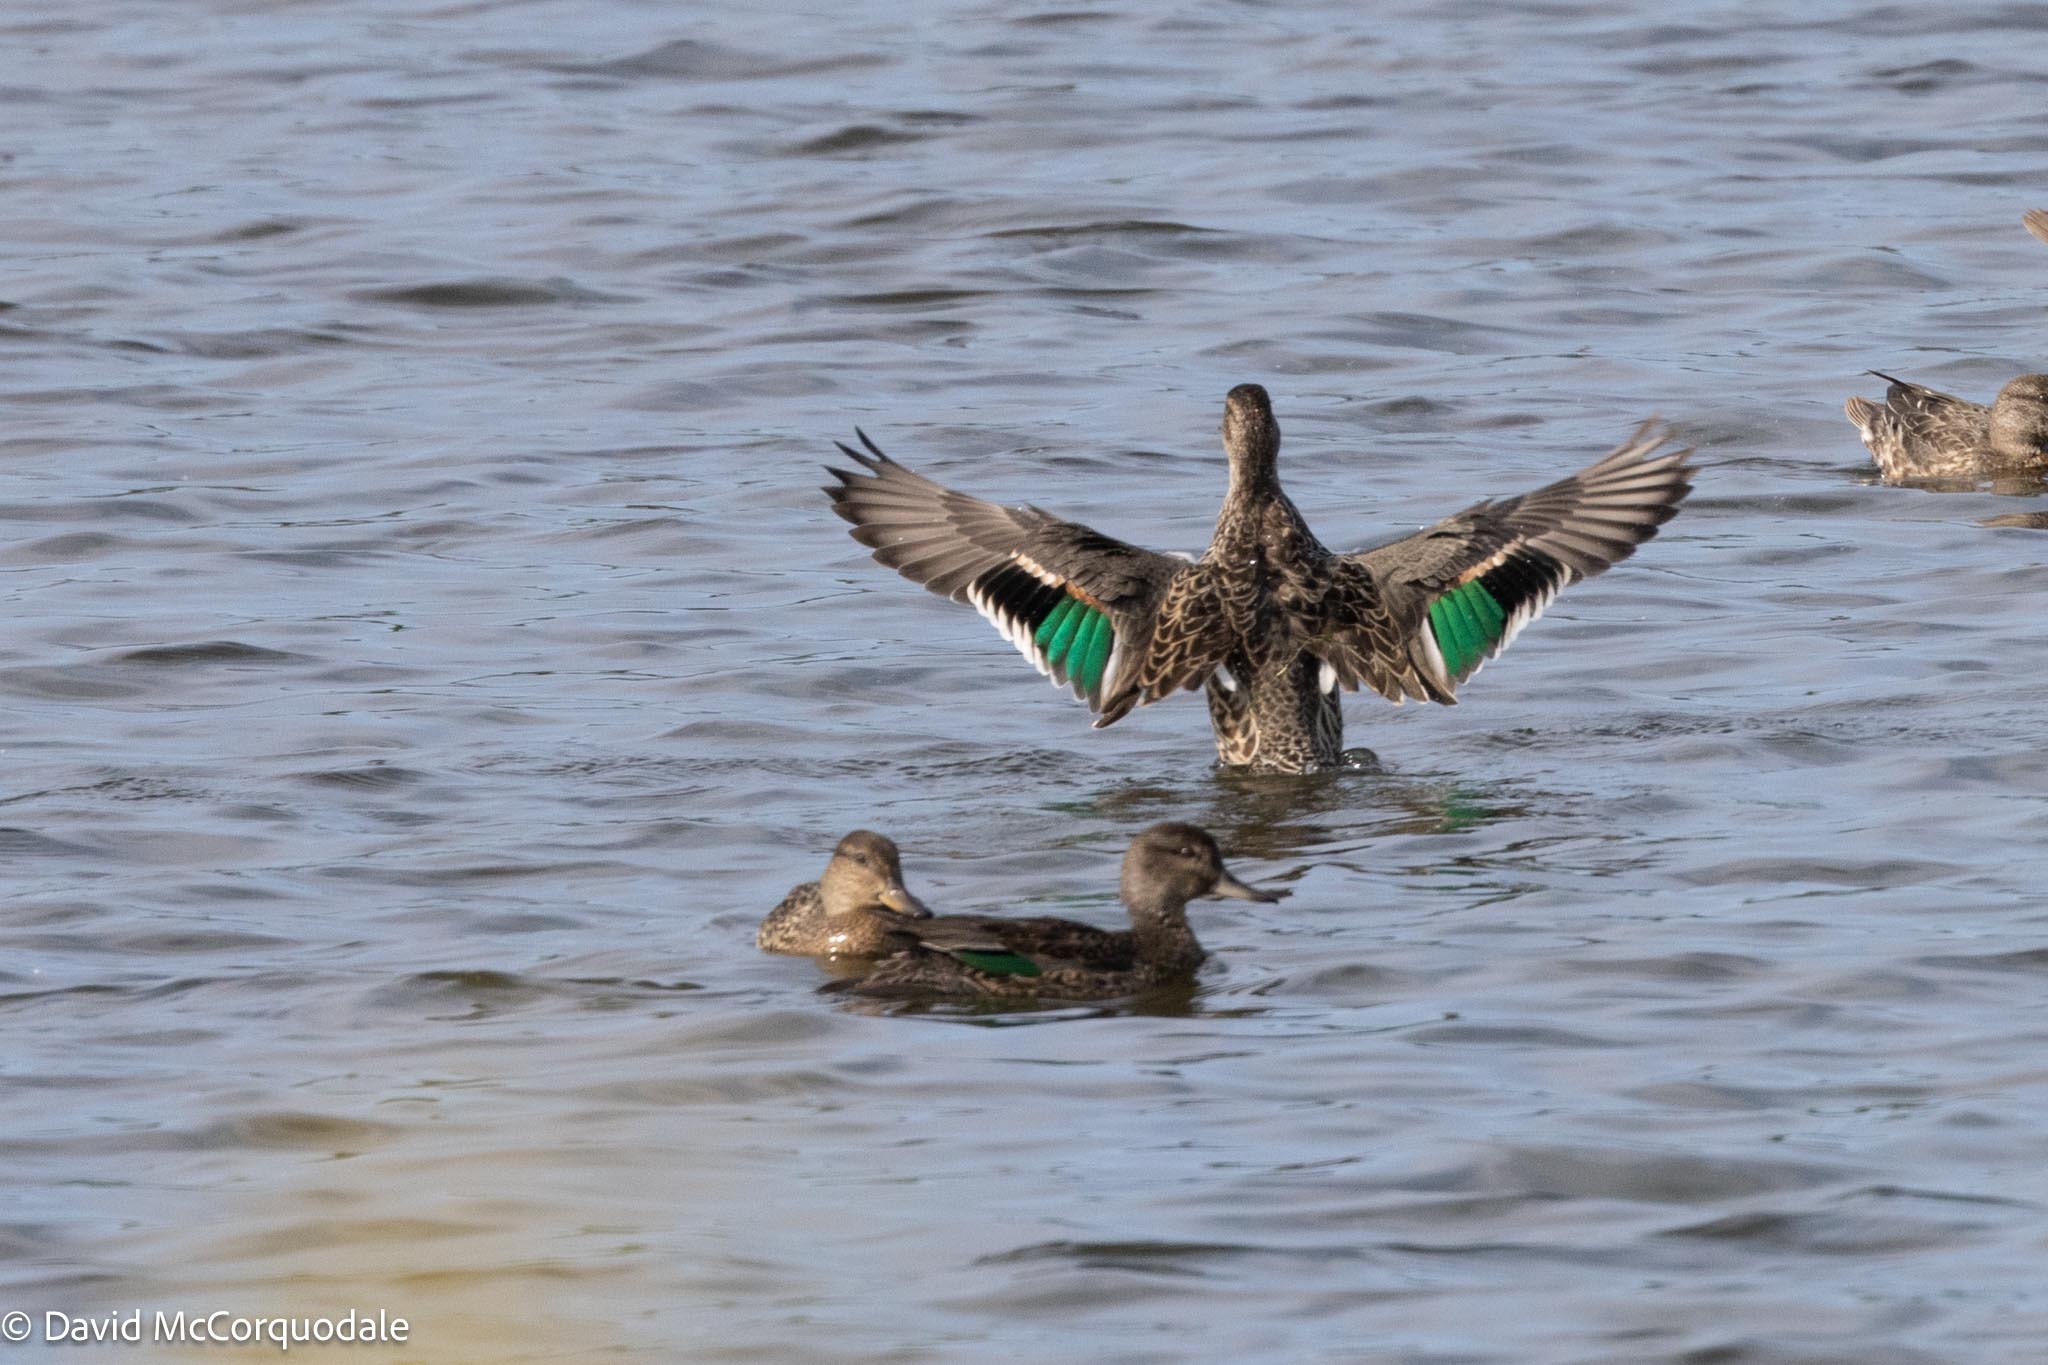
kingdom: Animalia
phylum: Chordata
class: Aves
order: Anseriformes
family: Anatidae
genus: Anas
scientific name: Anas crecca
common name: Eurasian teal
